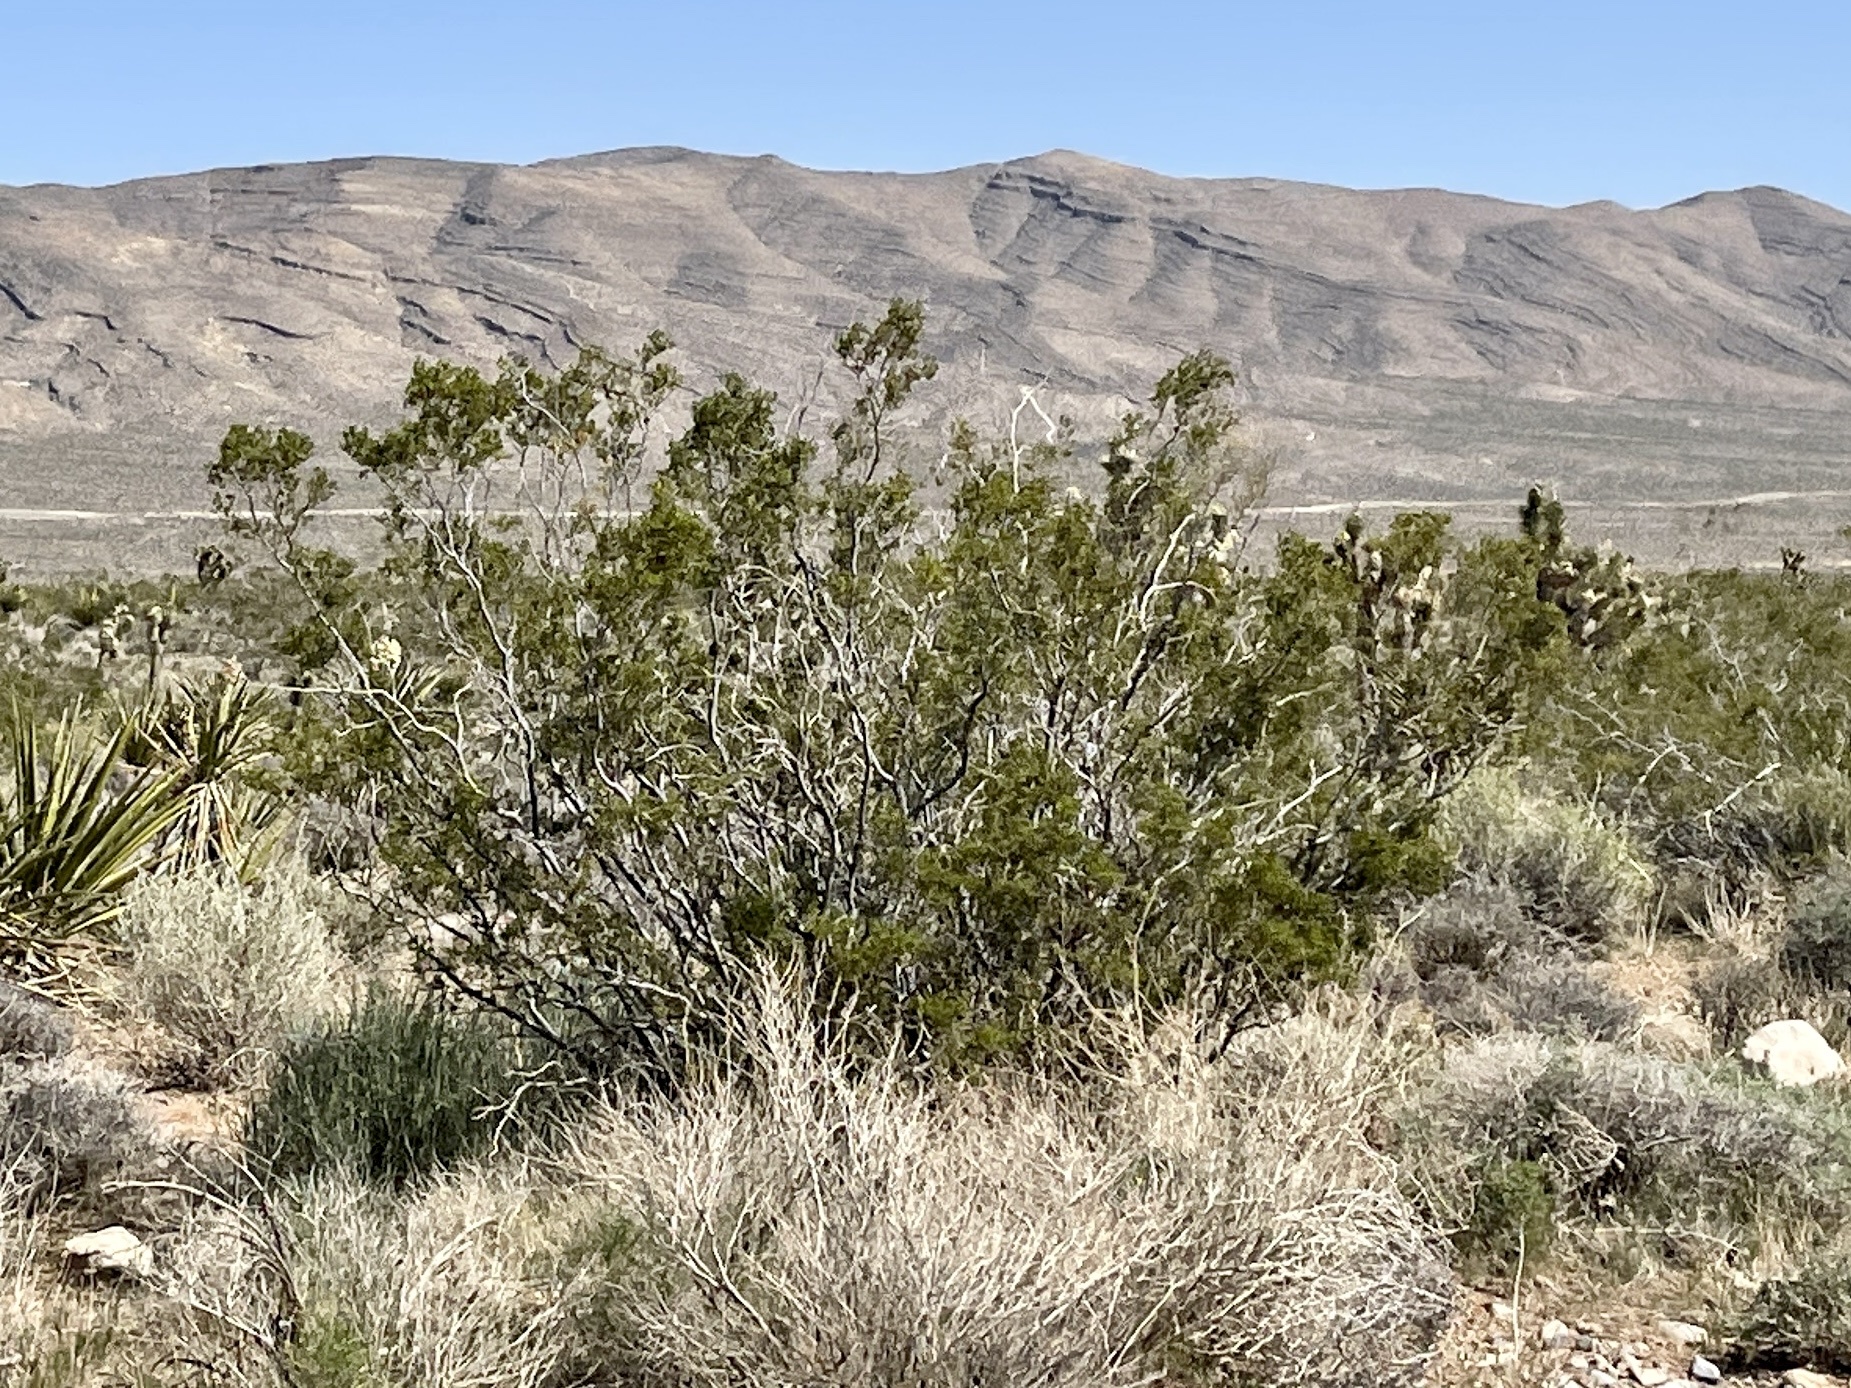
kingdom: Plantae
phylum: Tracheophyta
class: Magnoliopsida
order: Zygophyllales
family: Zygophyllaceae
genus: Larrea
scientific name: Larrea tridentata
